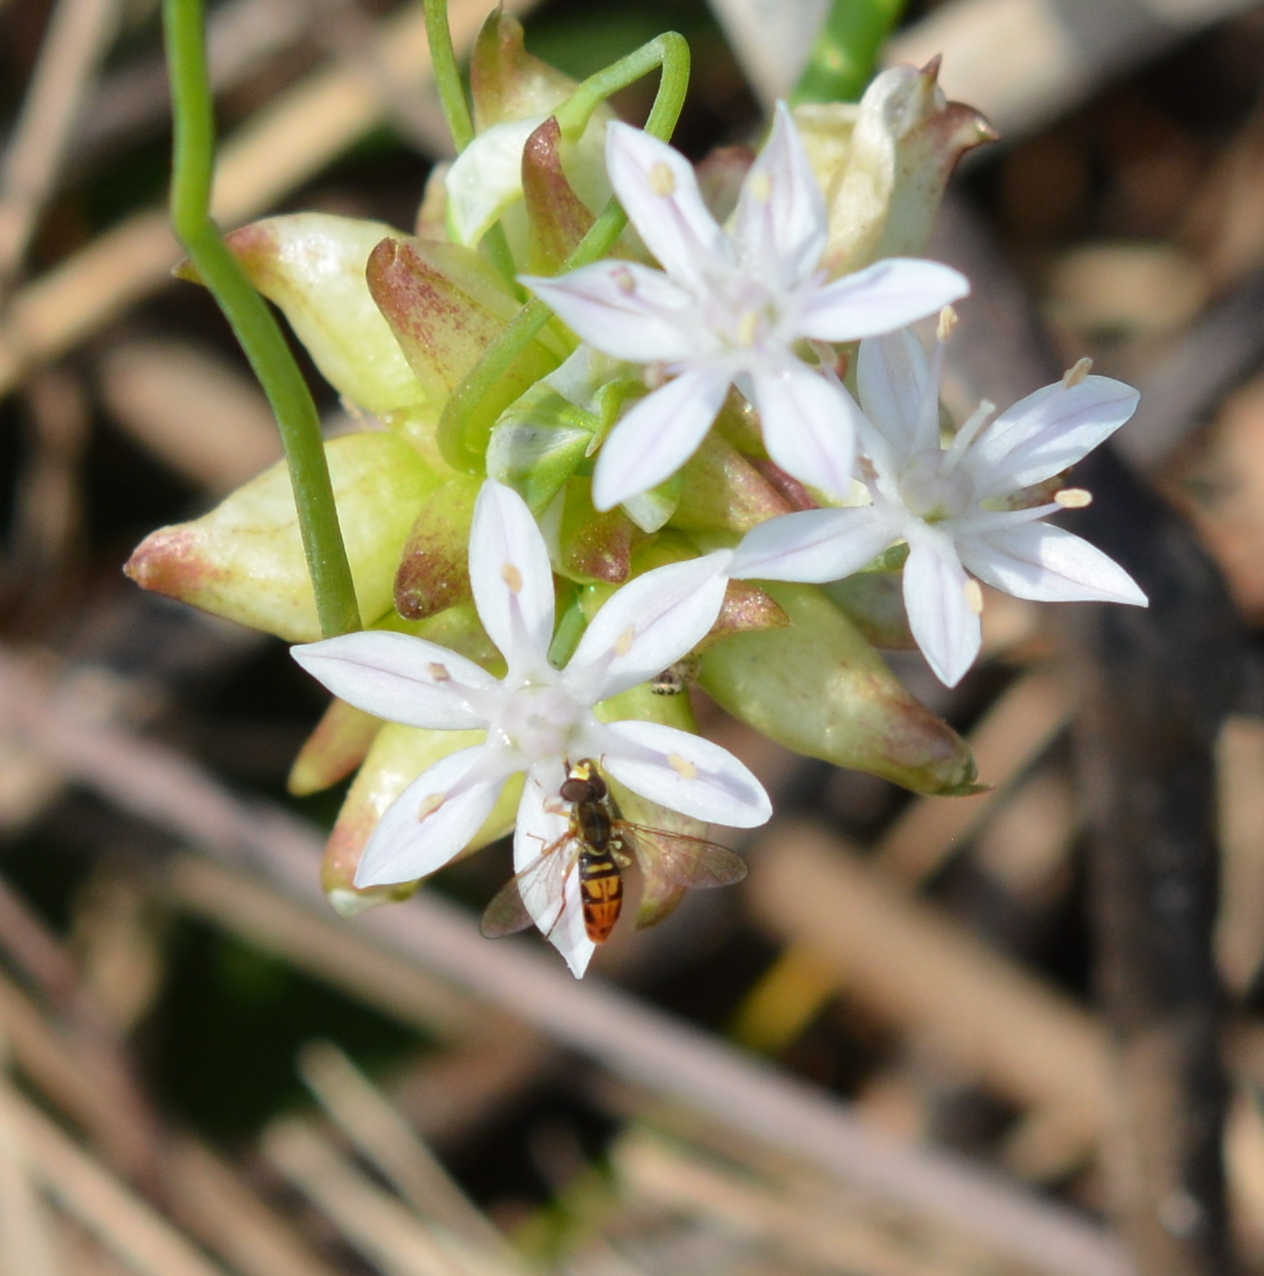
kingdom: Animalia
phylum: Arthropoda
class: Insecta
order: Diptera
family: Syrphidae
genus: Toxomerus
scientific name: Toxomerus marginatus
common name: Syrphid fly
